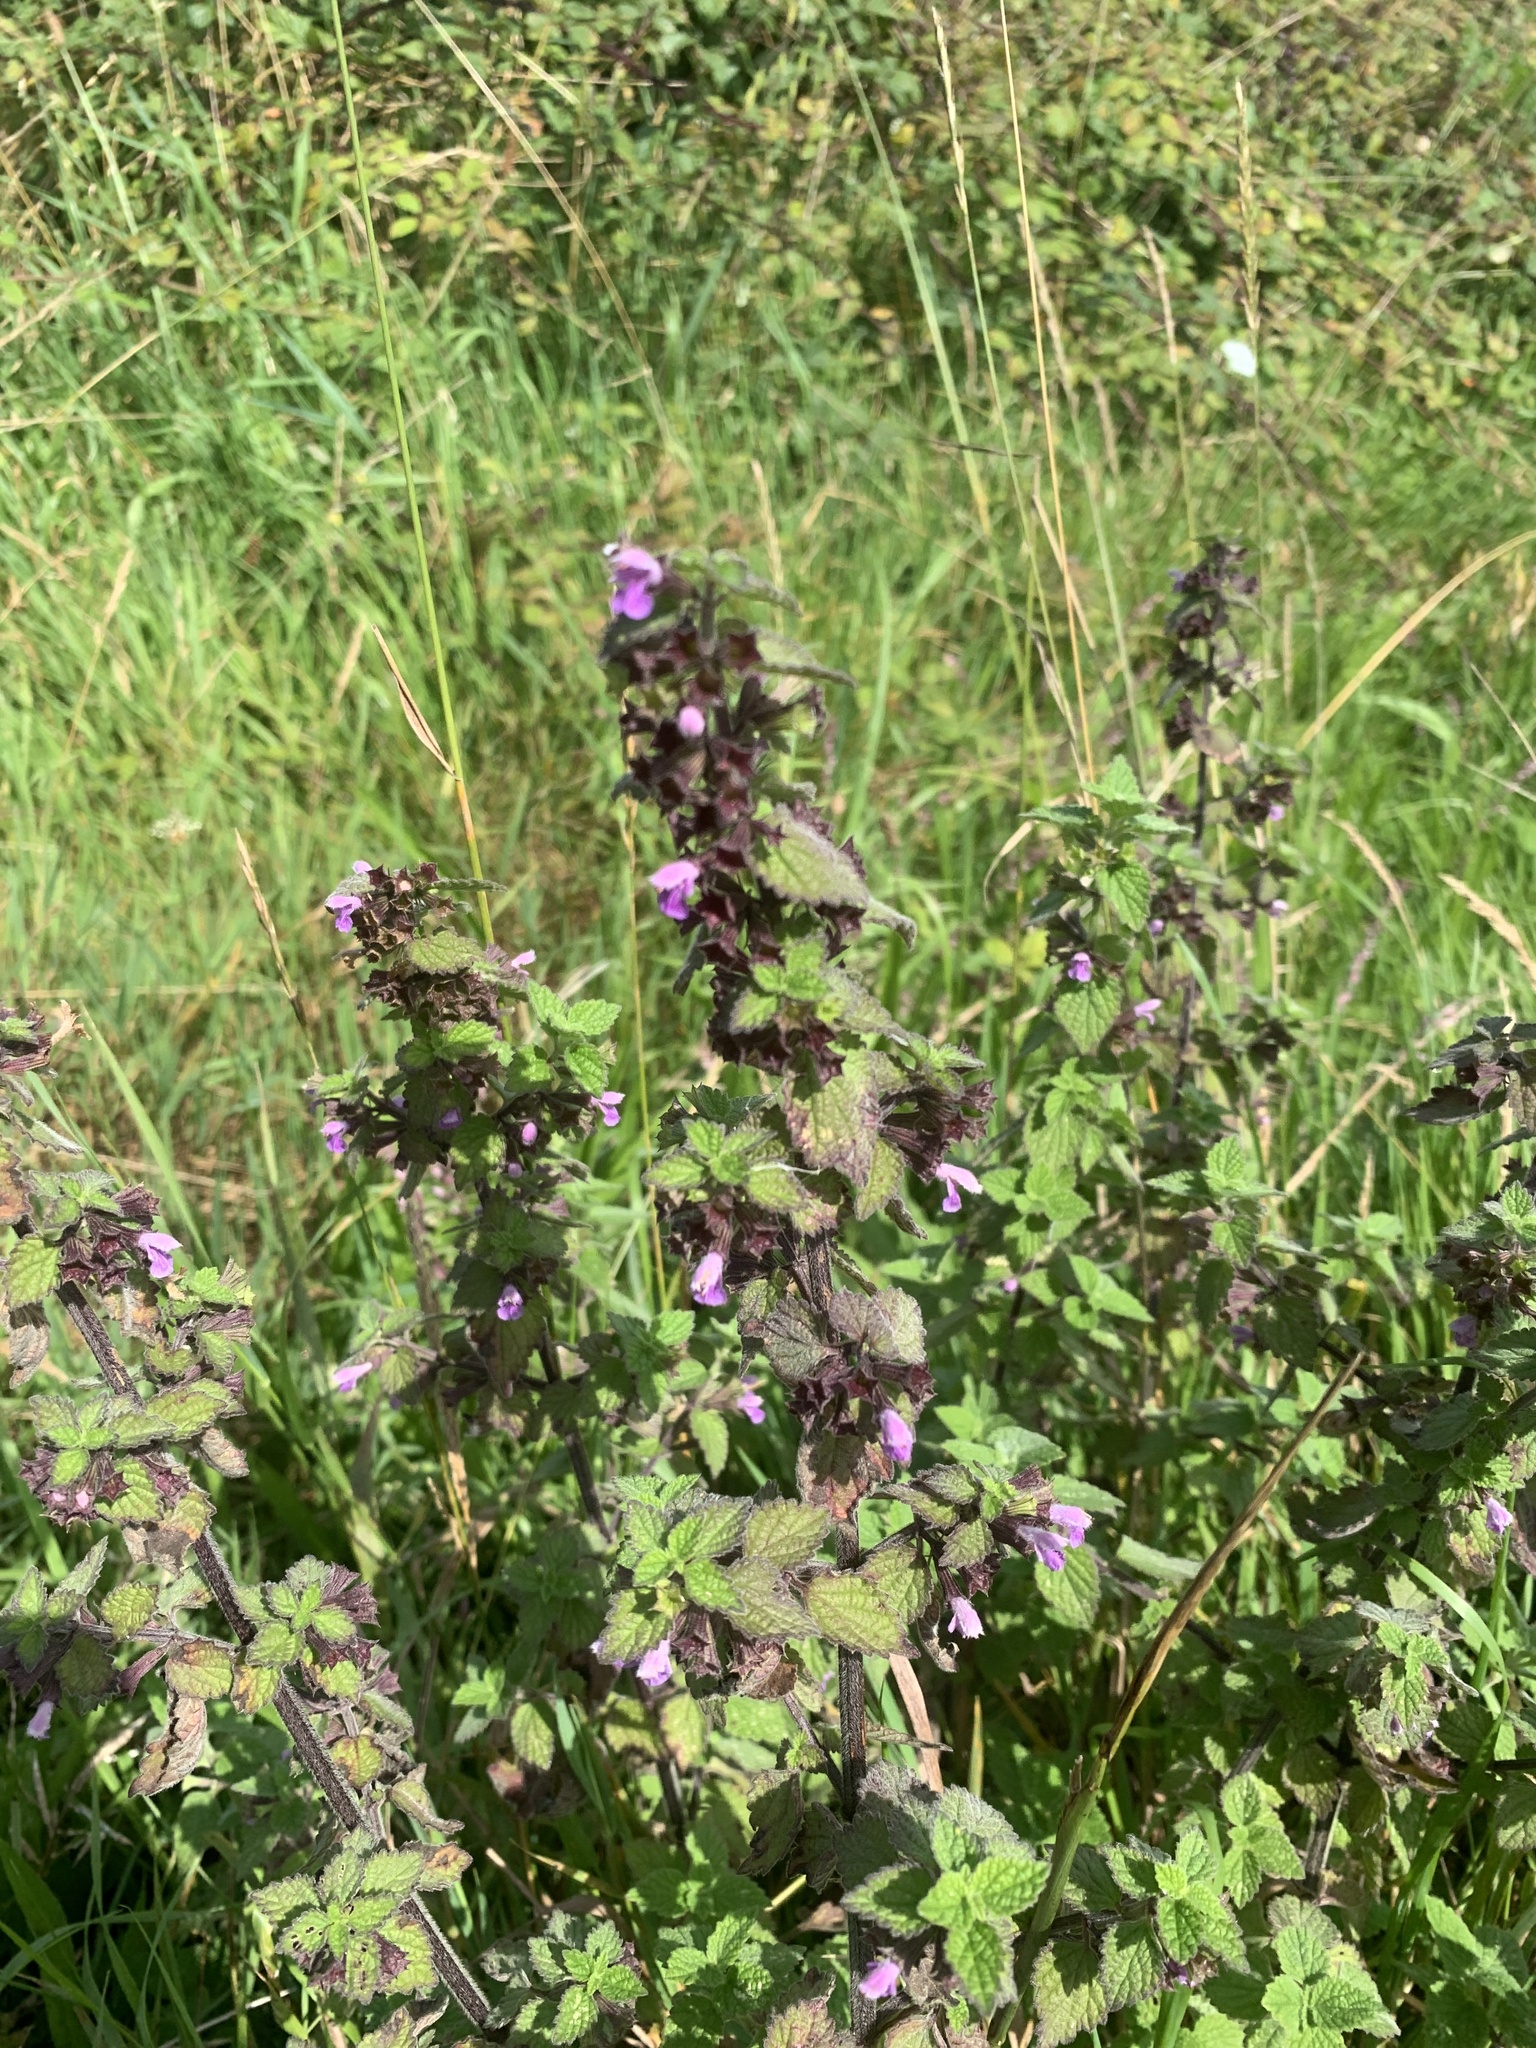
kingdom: Plantae
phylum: Tracheophyta
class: Magnoliopsida
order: Lamiales
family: Lamiaceae
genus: Ballota
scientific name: Ballota nigra
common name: Black horehound
